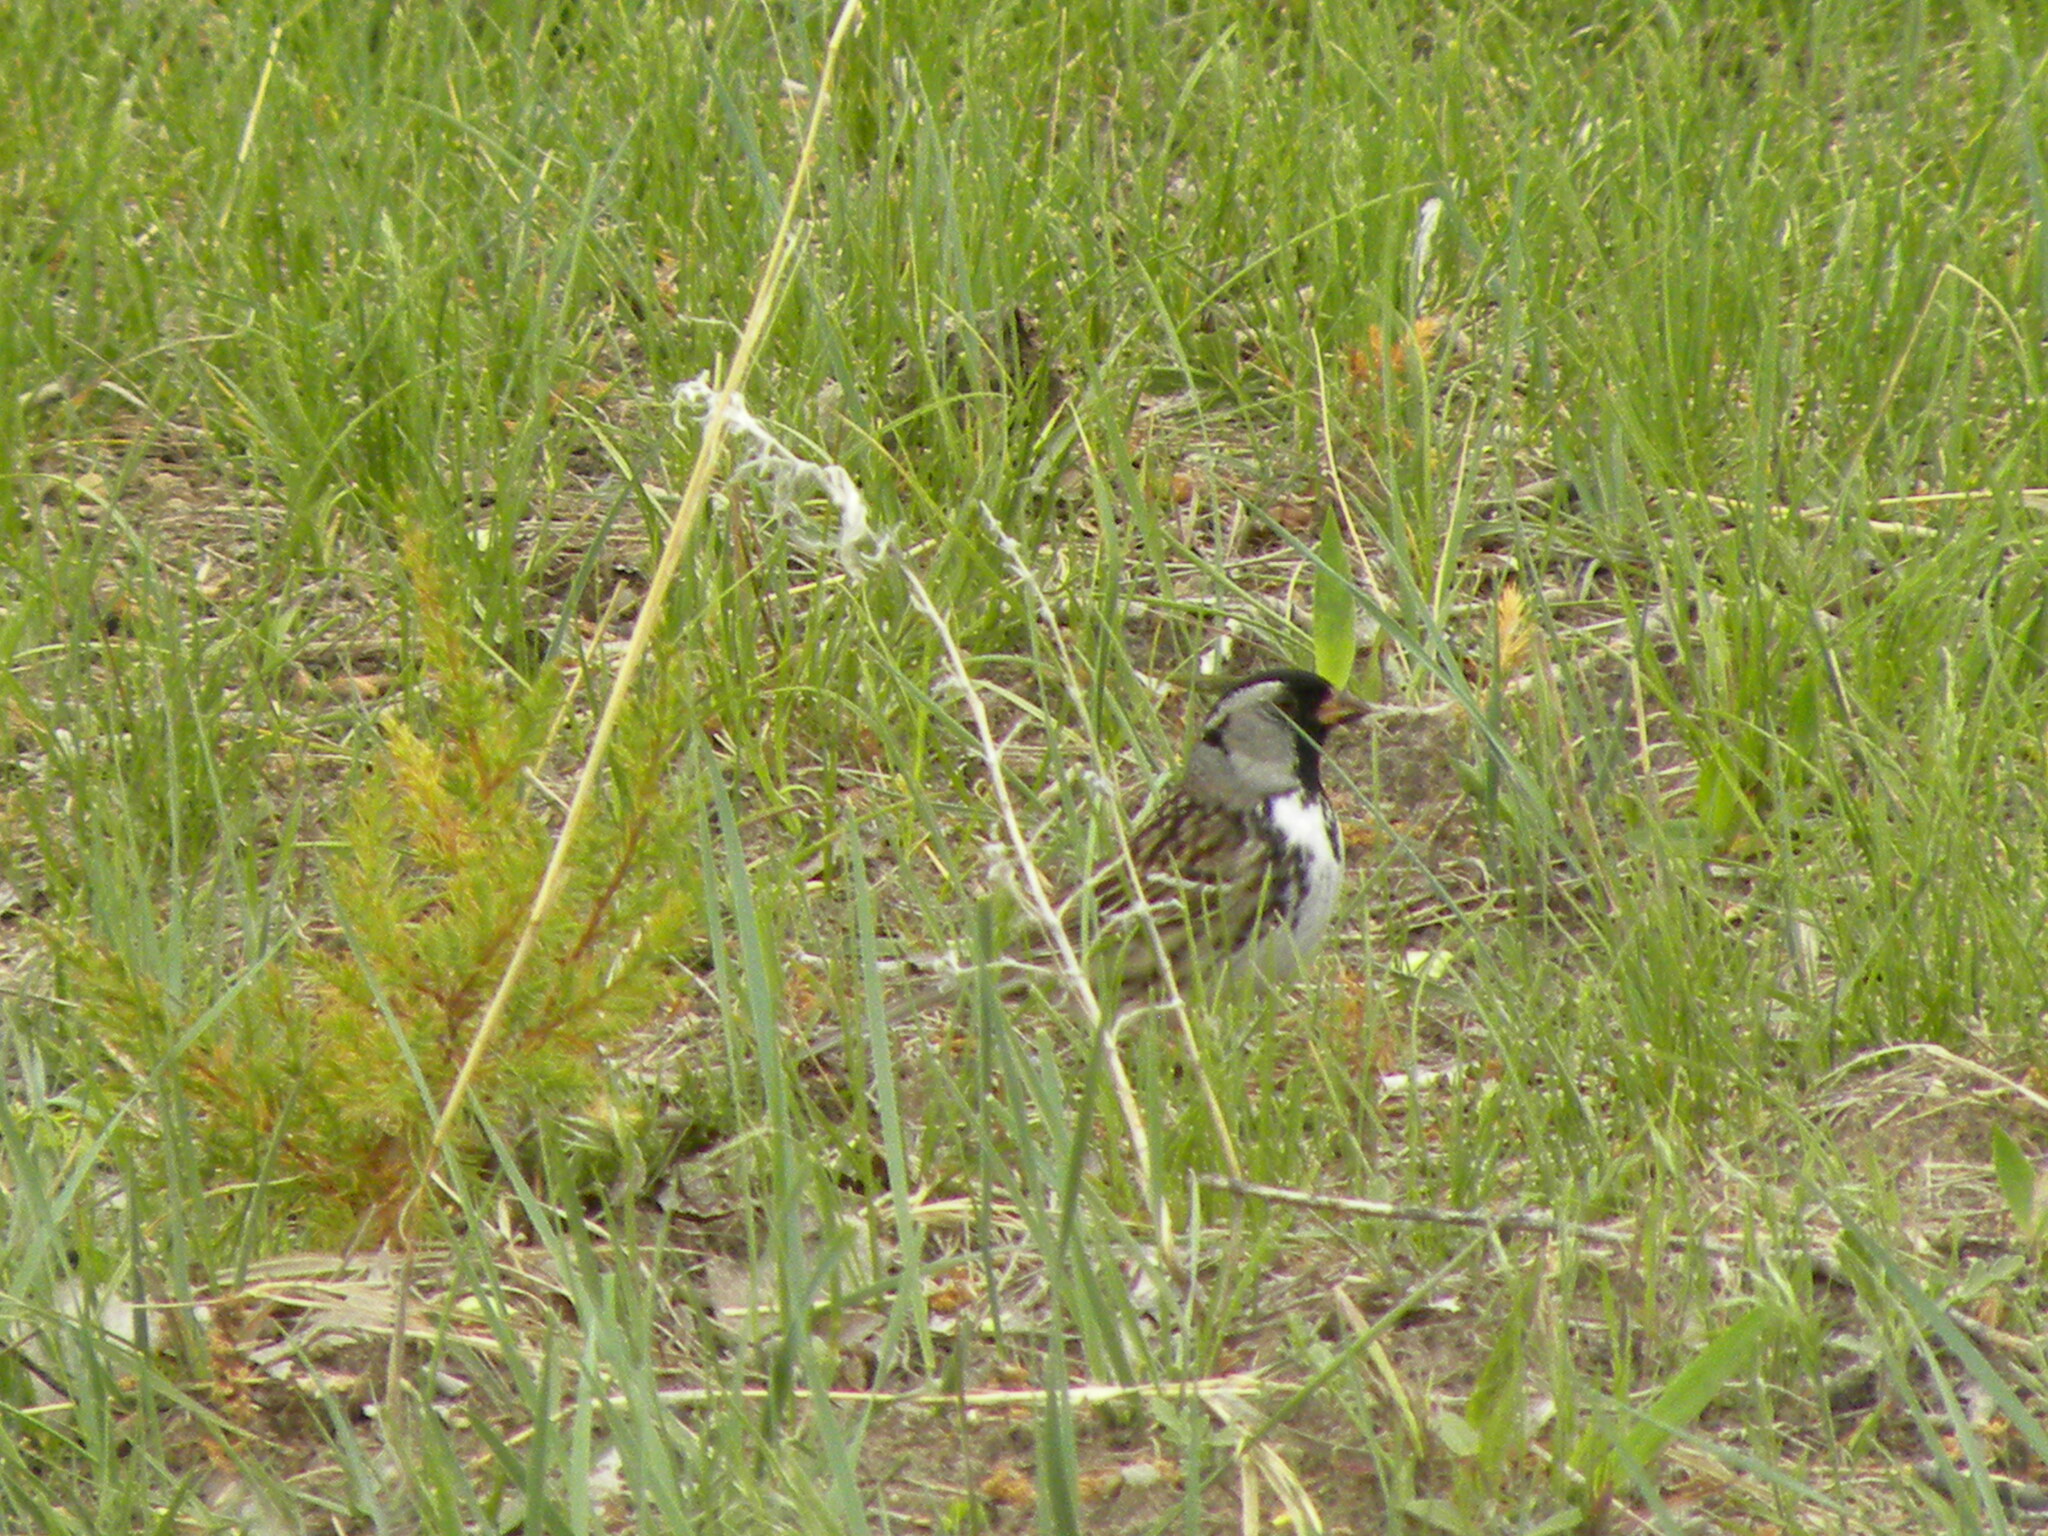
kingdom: Animalia
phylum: Chordata
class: Aves
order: Passeriformes
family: Passerellidae
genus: Zonotrichia
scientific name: Zonotrichia querula
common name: Harris's sparrow
